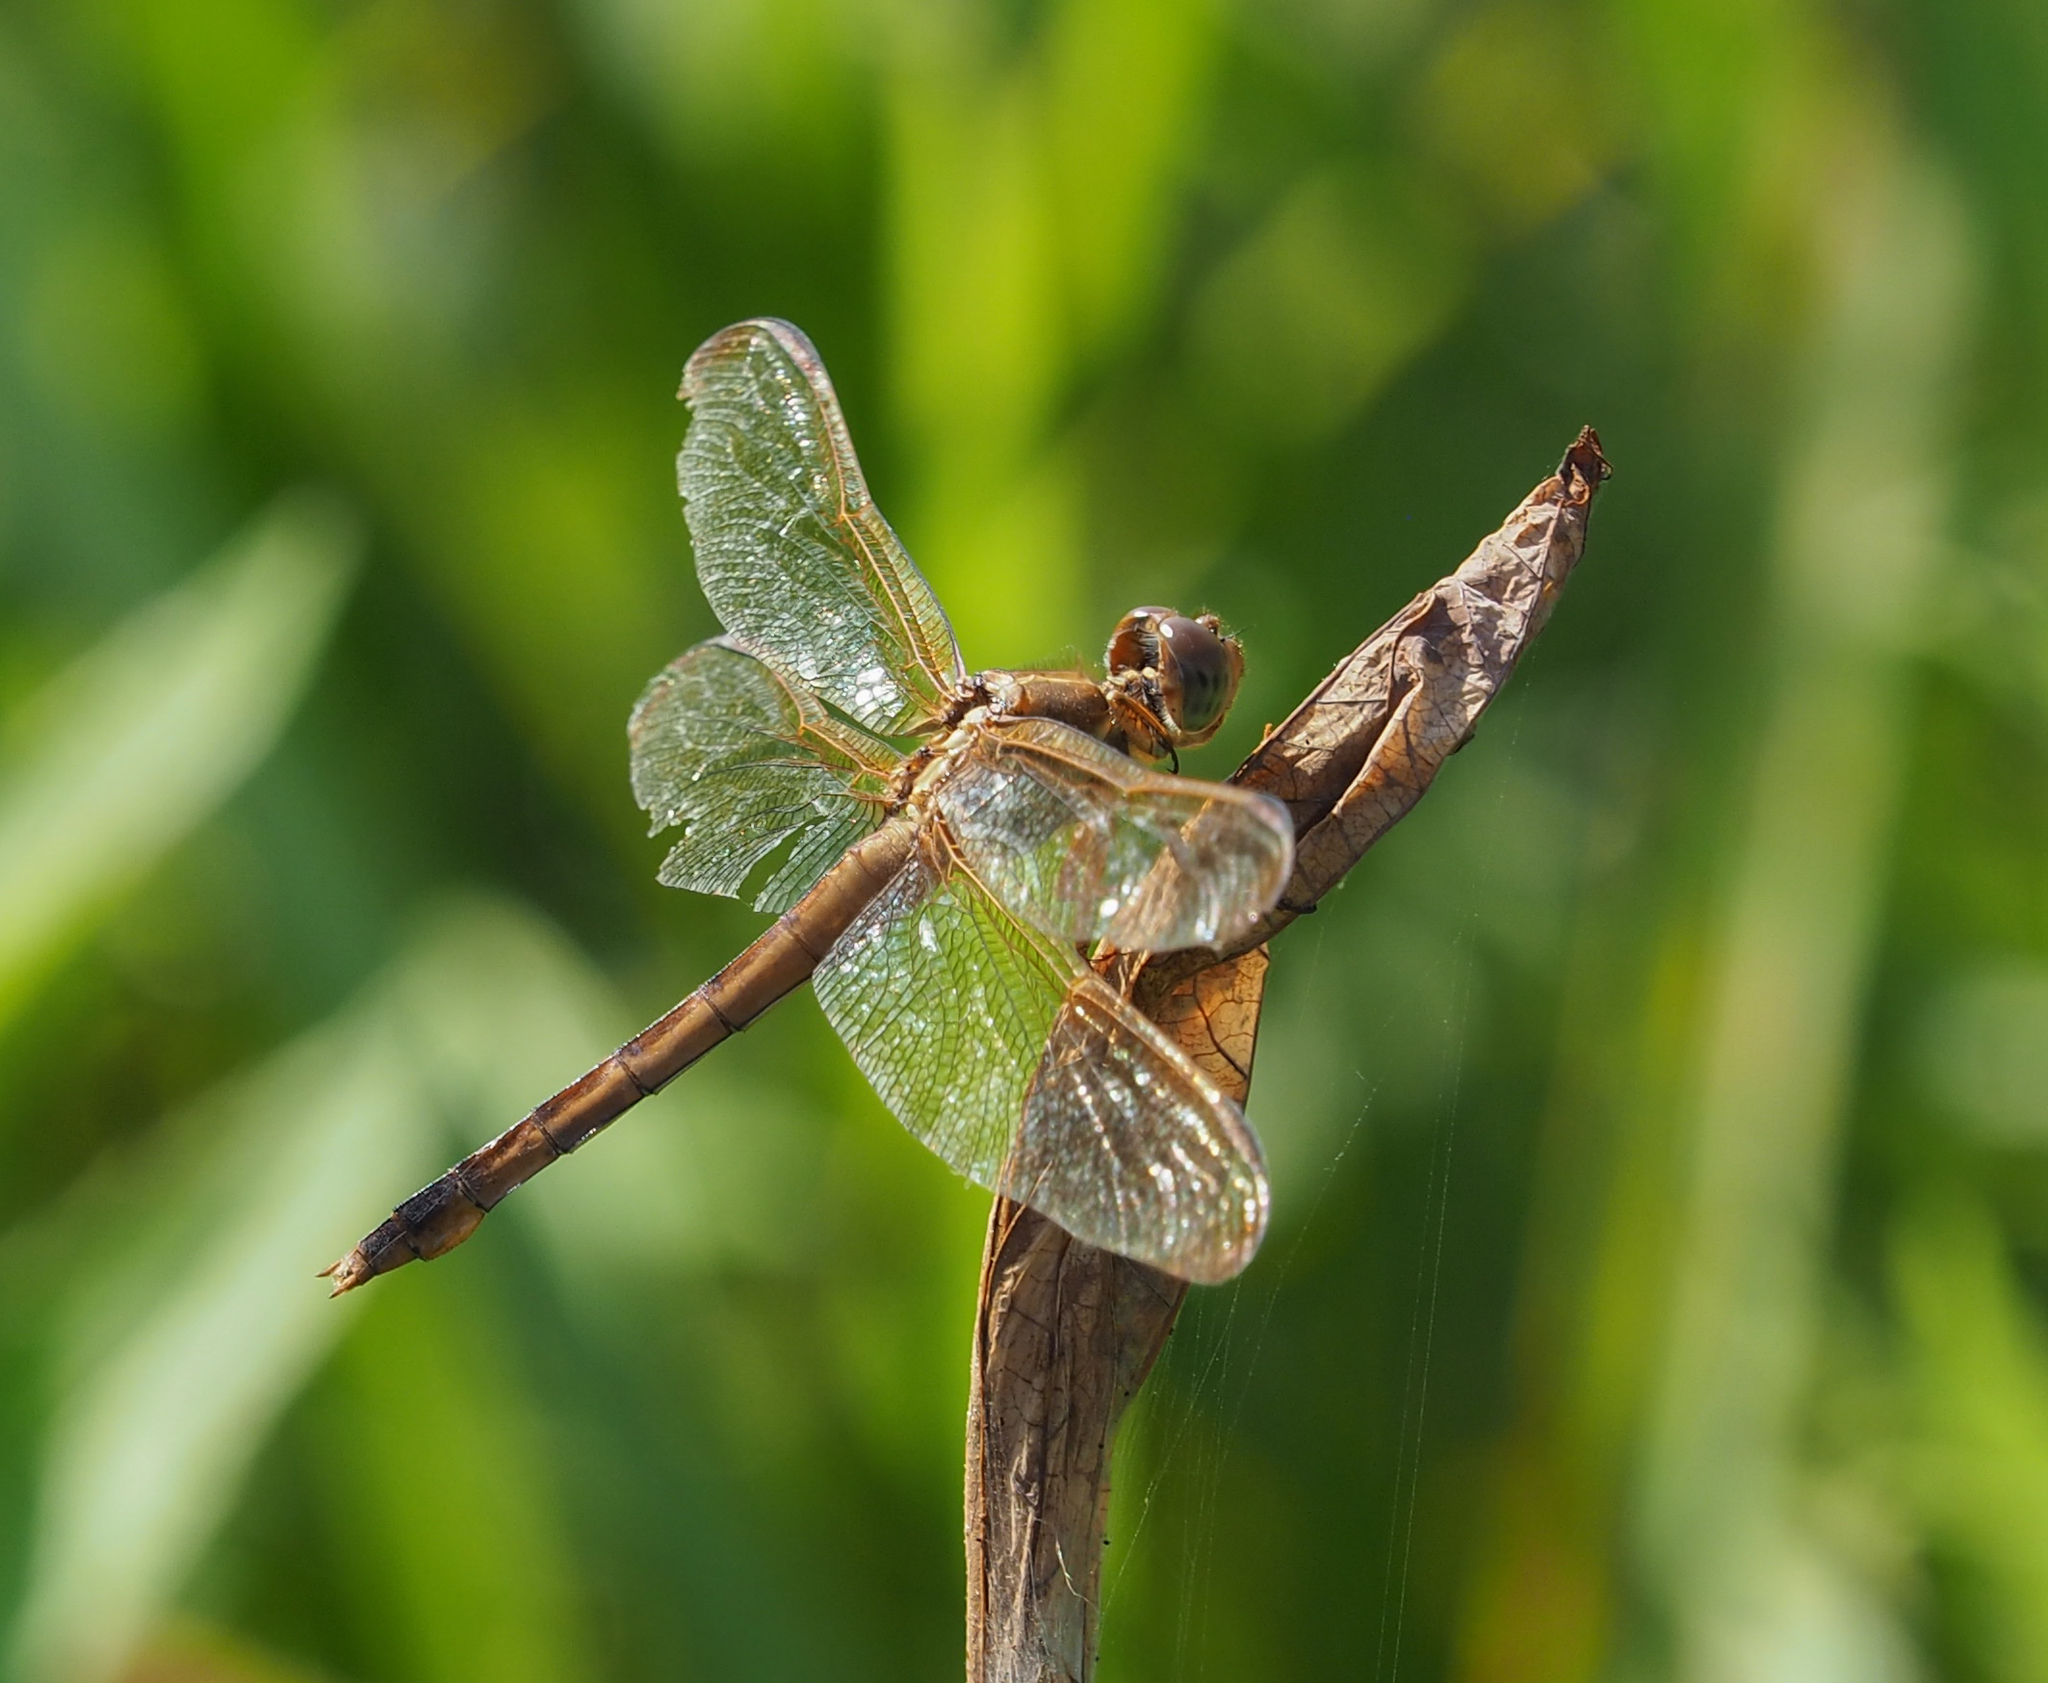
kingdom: Animalia
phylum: Arthropoda
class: Insecta
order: Odonata
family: Libellulidae
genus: Libellula
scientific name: Libellula needhami
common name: Needham's skimmer
